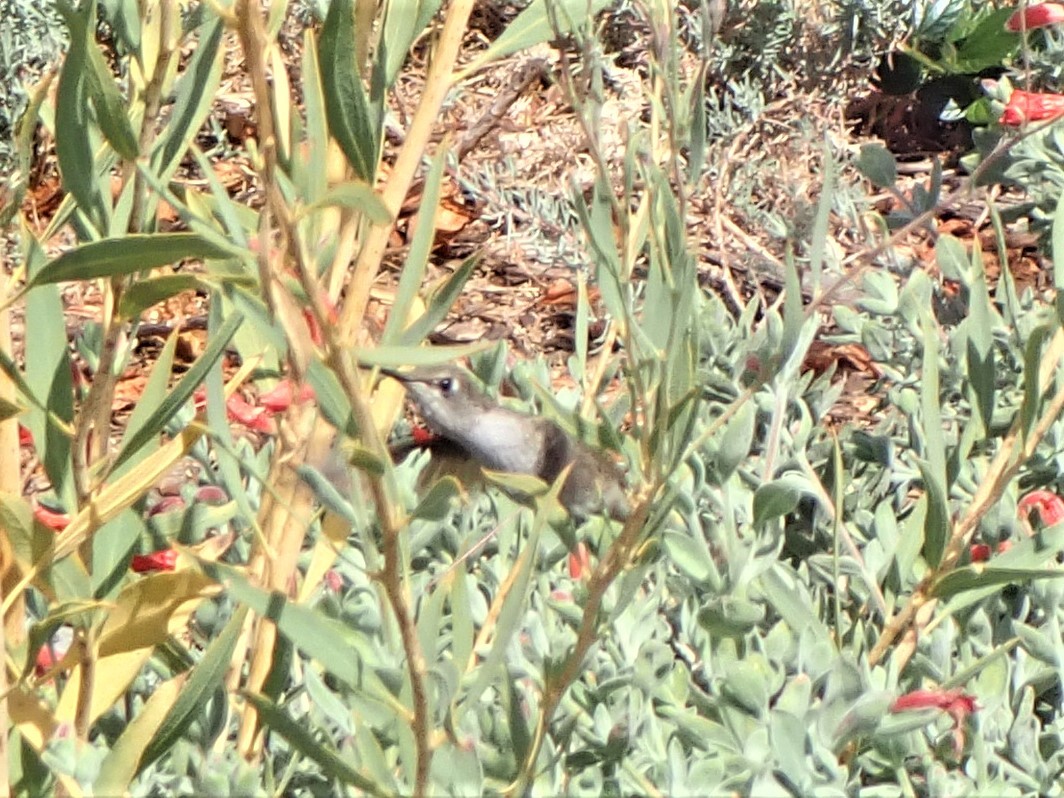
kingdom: Animalia
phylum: Chordata
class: Aves
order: Apodiformes
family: Trochilidae
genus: Calypte
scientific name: Calypte anna
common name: Anna's hummingbird
